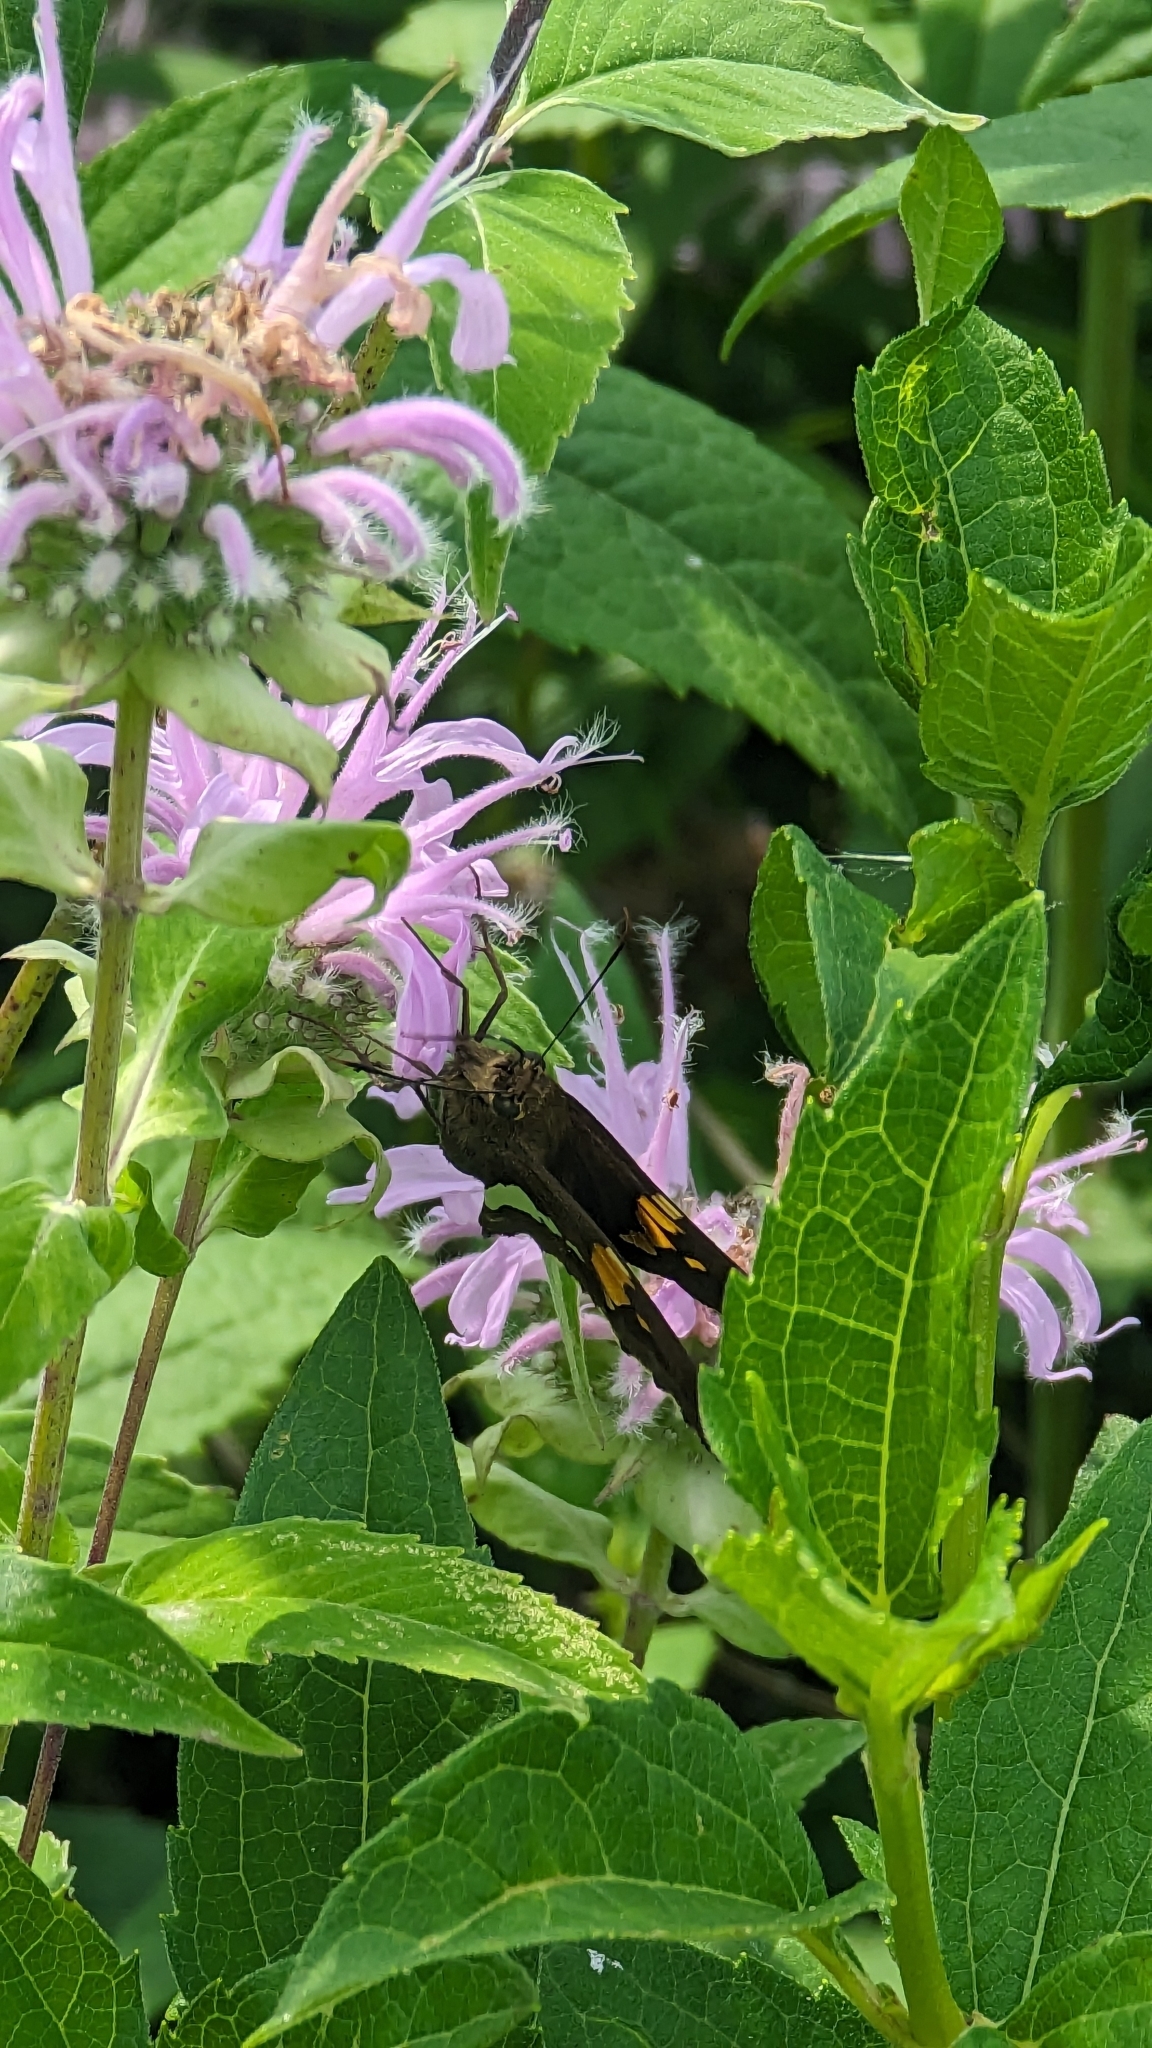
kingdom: Animalia
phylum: Arthropoda
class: Insecta
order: Lepidoptera
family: Hesperiidae
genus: Epargyreus
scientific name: Epargyreus clarus
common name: Silver-spotted skipper
